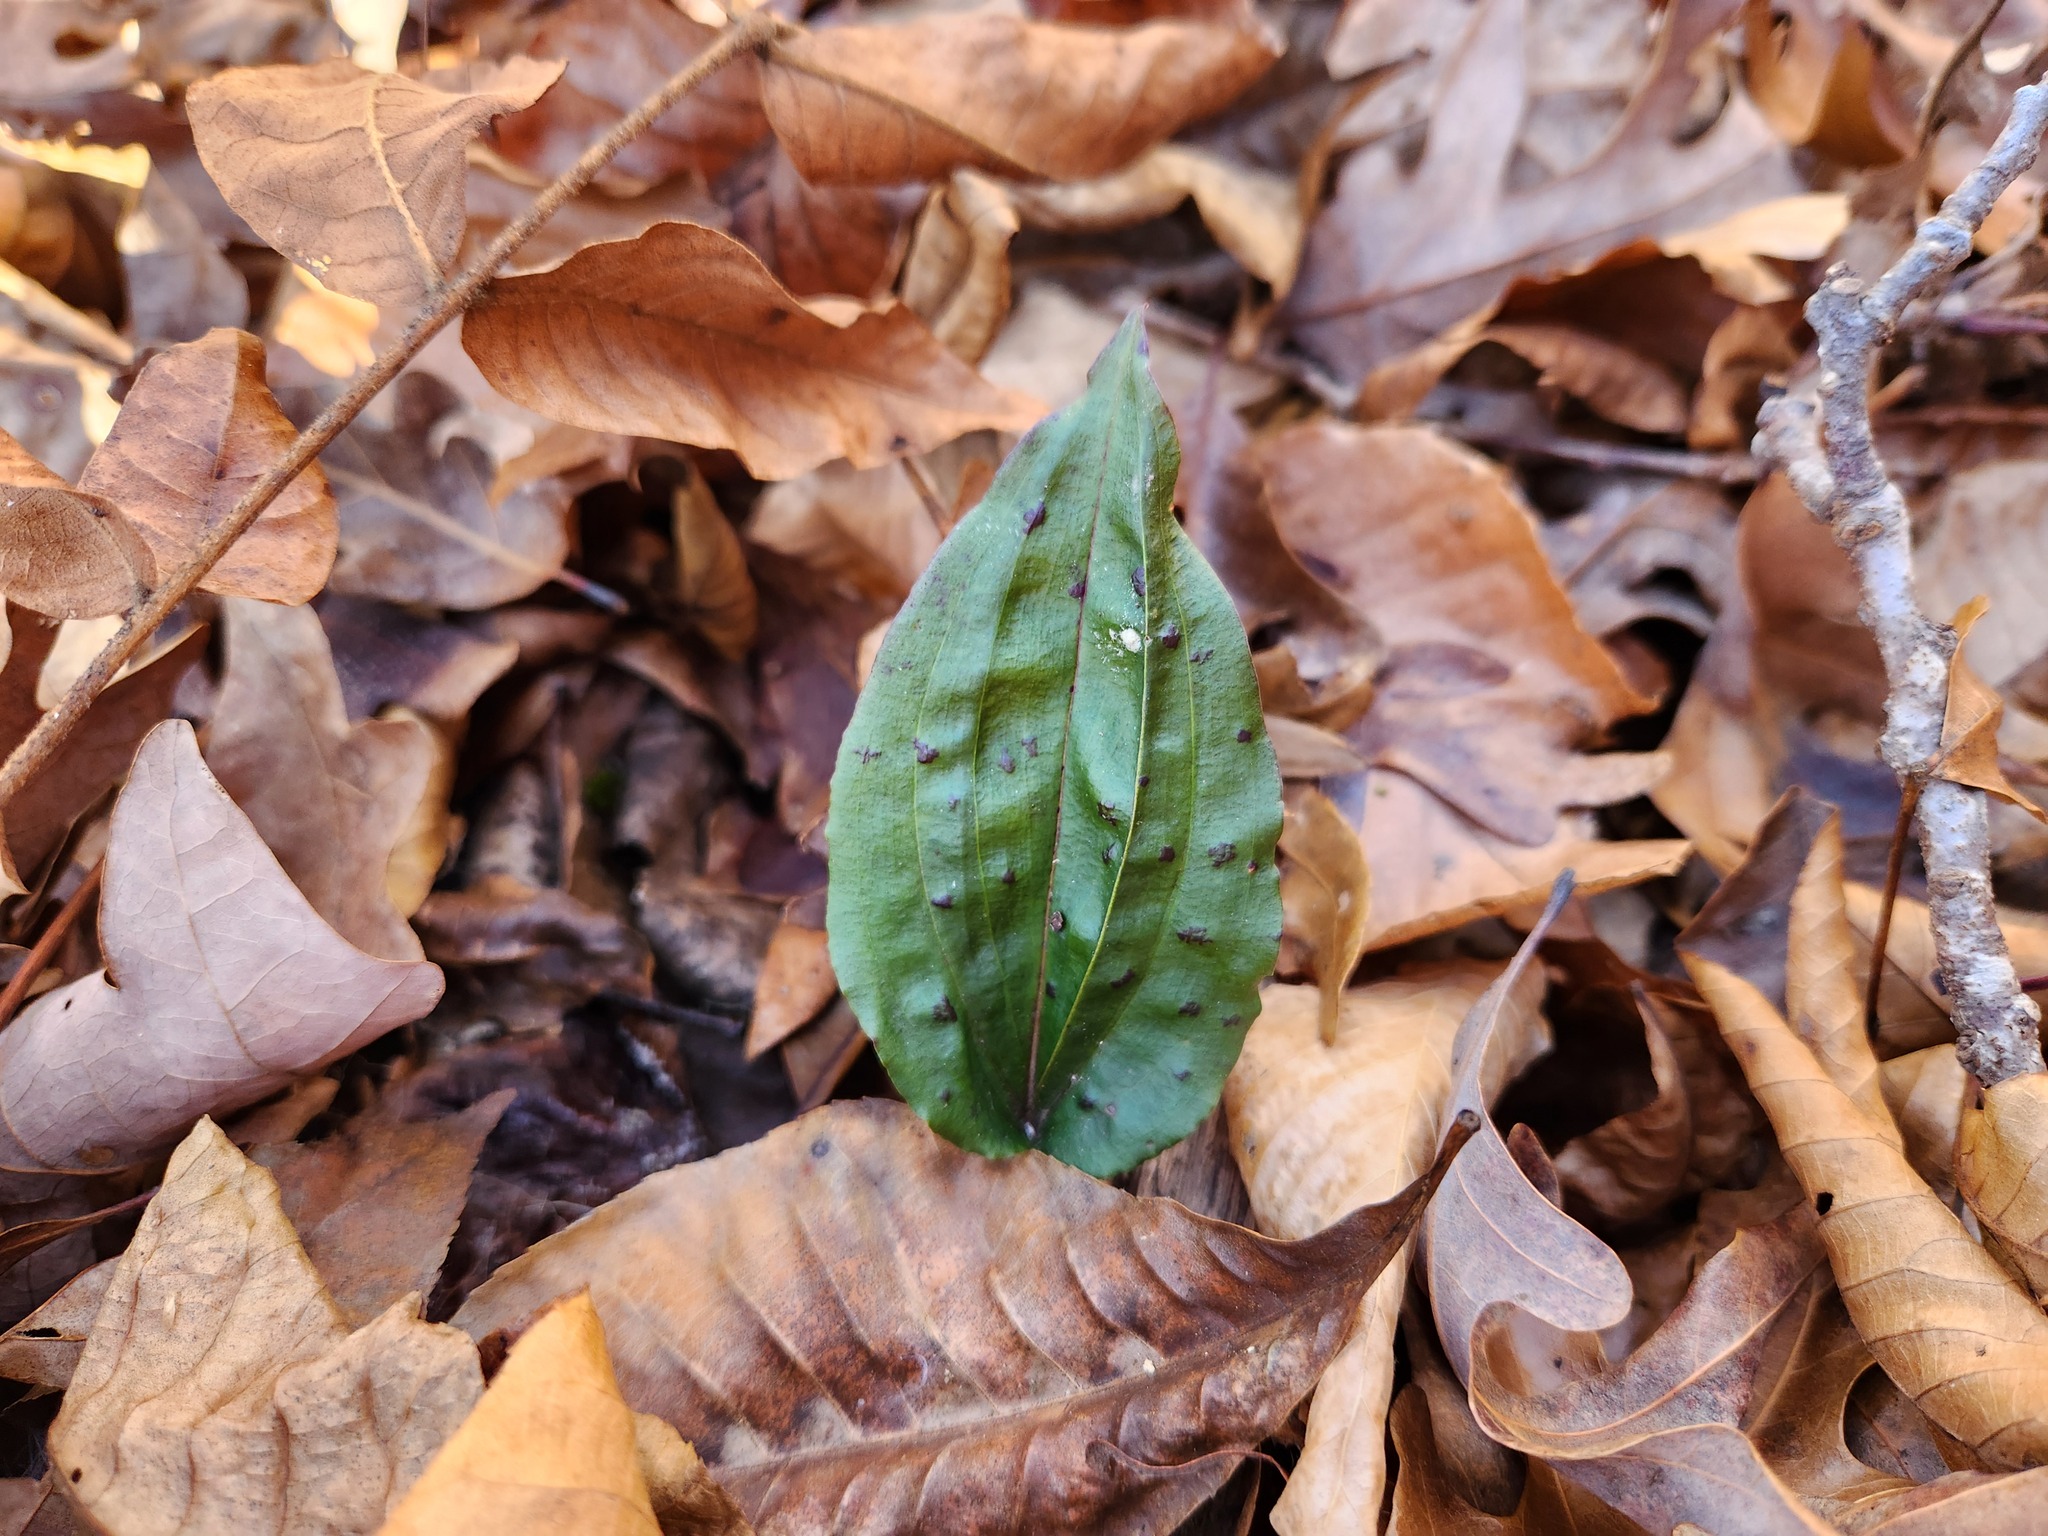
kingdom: Plantae
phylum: Tracheophyta
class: Liliopsida
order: Asparagales
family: Orchidaceae
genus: Tipularia
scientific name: Tipularia discolor
